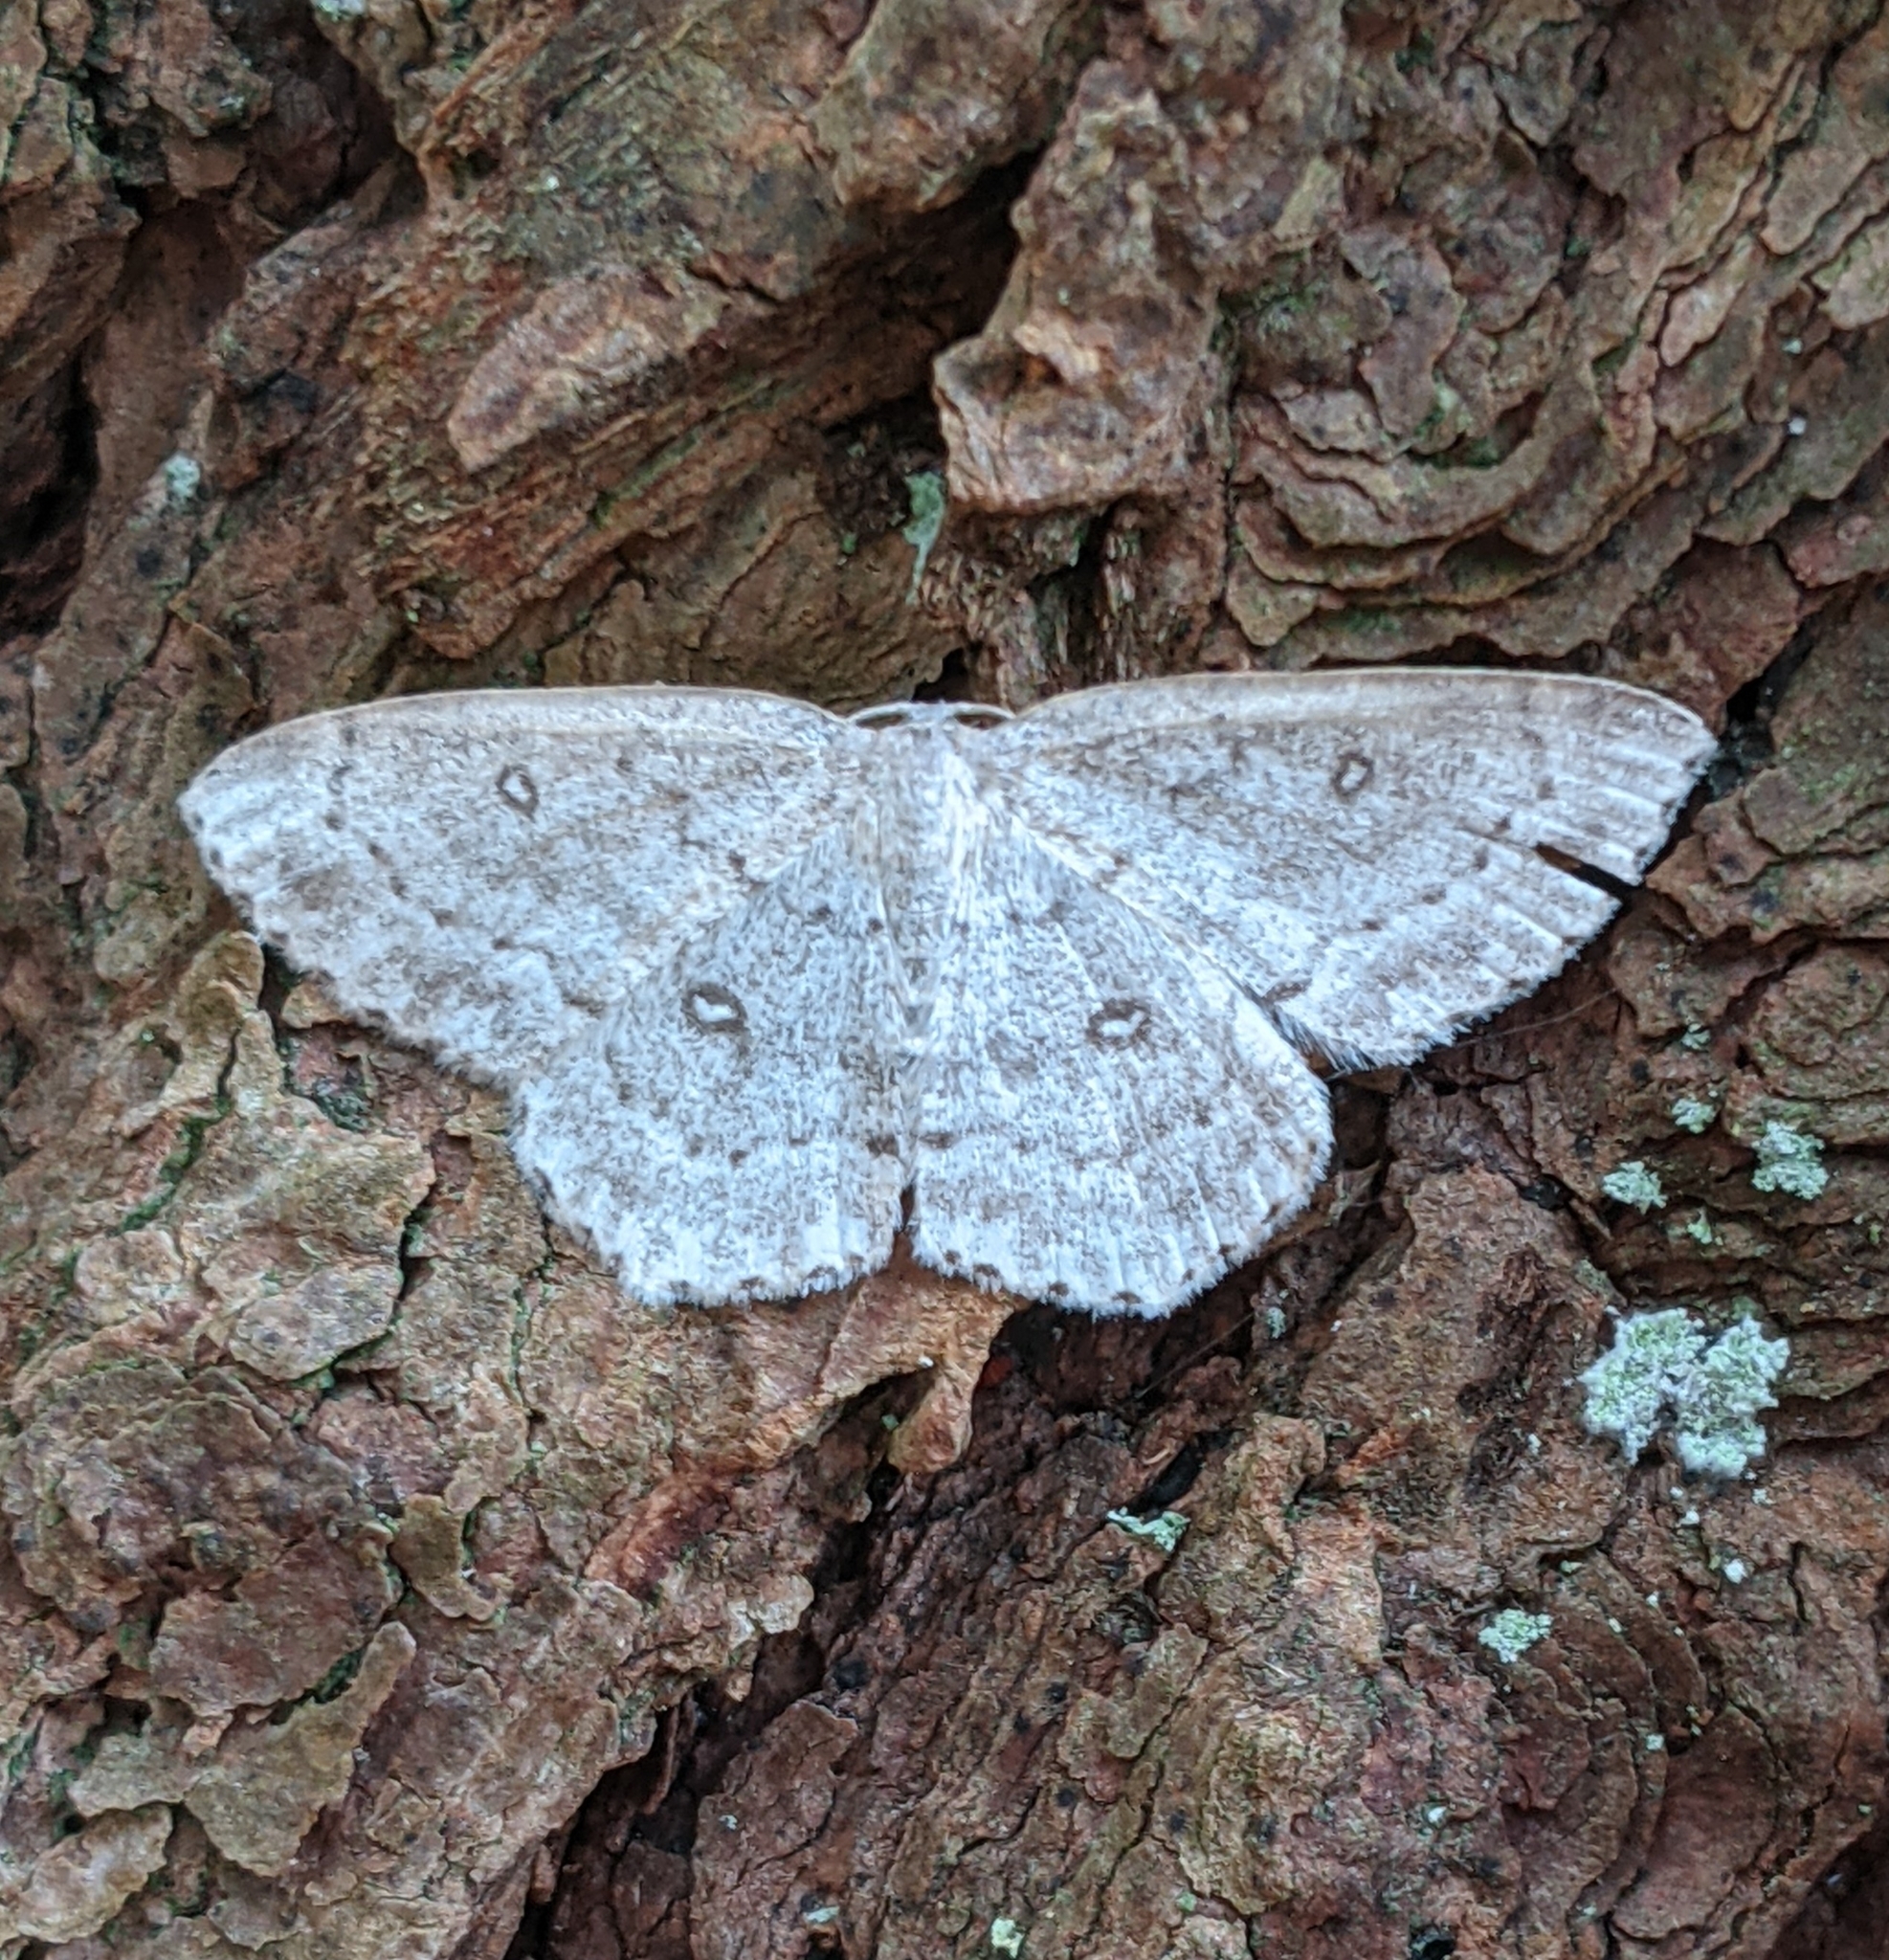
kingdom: Animalia
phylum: Arthropoda
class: Insecta
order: Lepidoptera
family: Geometridae
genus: Cyclophora
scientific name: Cyclophora pendulinaria
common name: Sweet fern geometer
